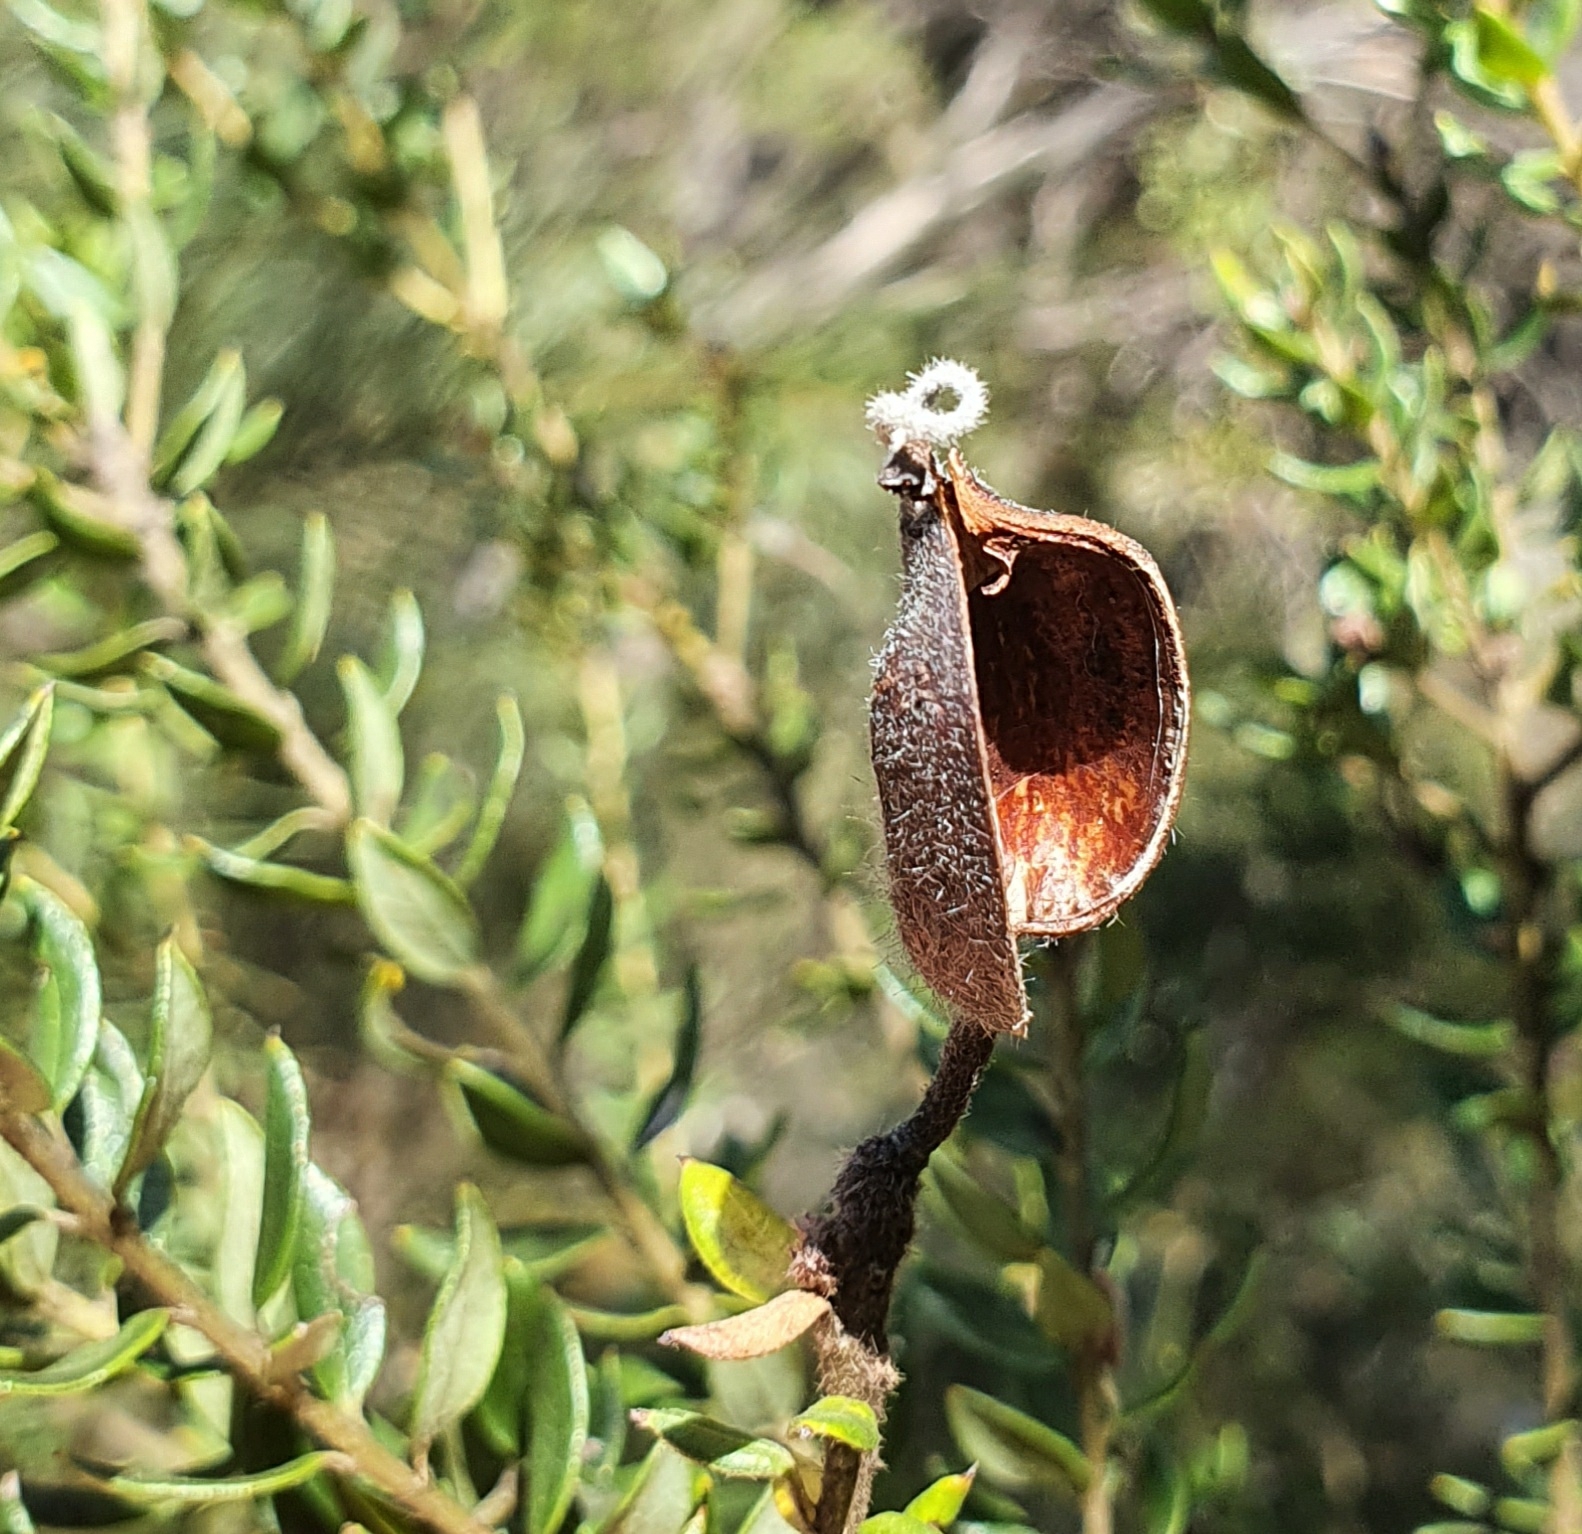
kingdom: Plantae
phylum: Tracheophyta
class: Magnoliopsida
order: Proteales
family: Proteaceae
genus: Grevillea
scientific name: Grevillea buxifolia
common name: Grey spiderflower
